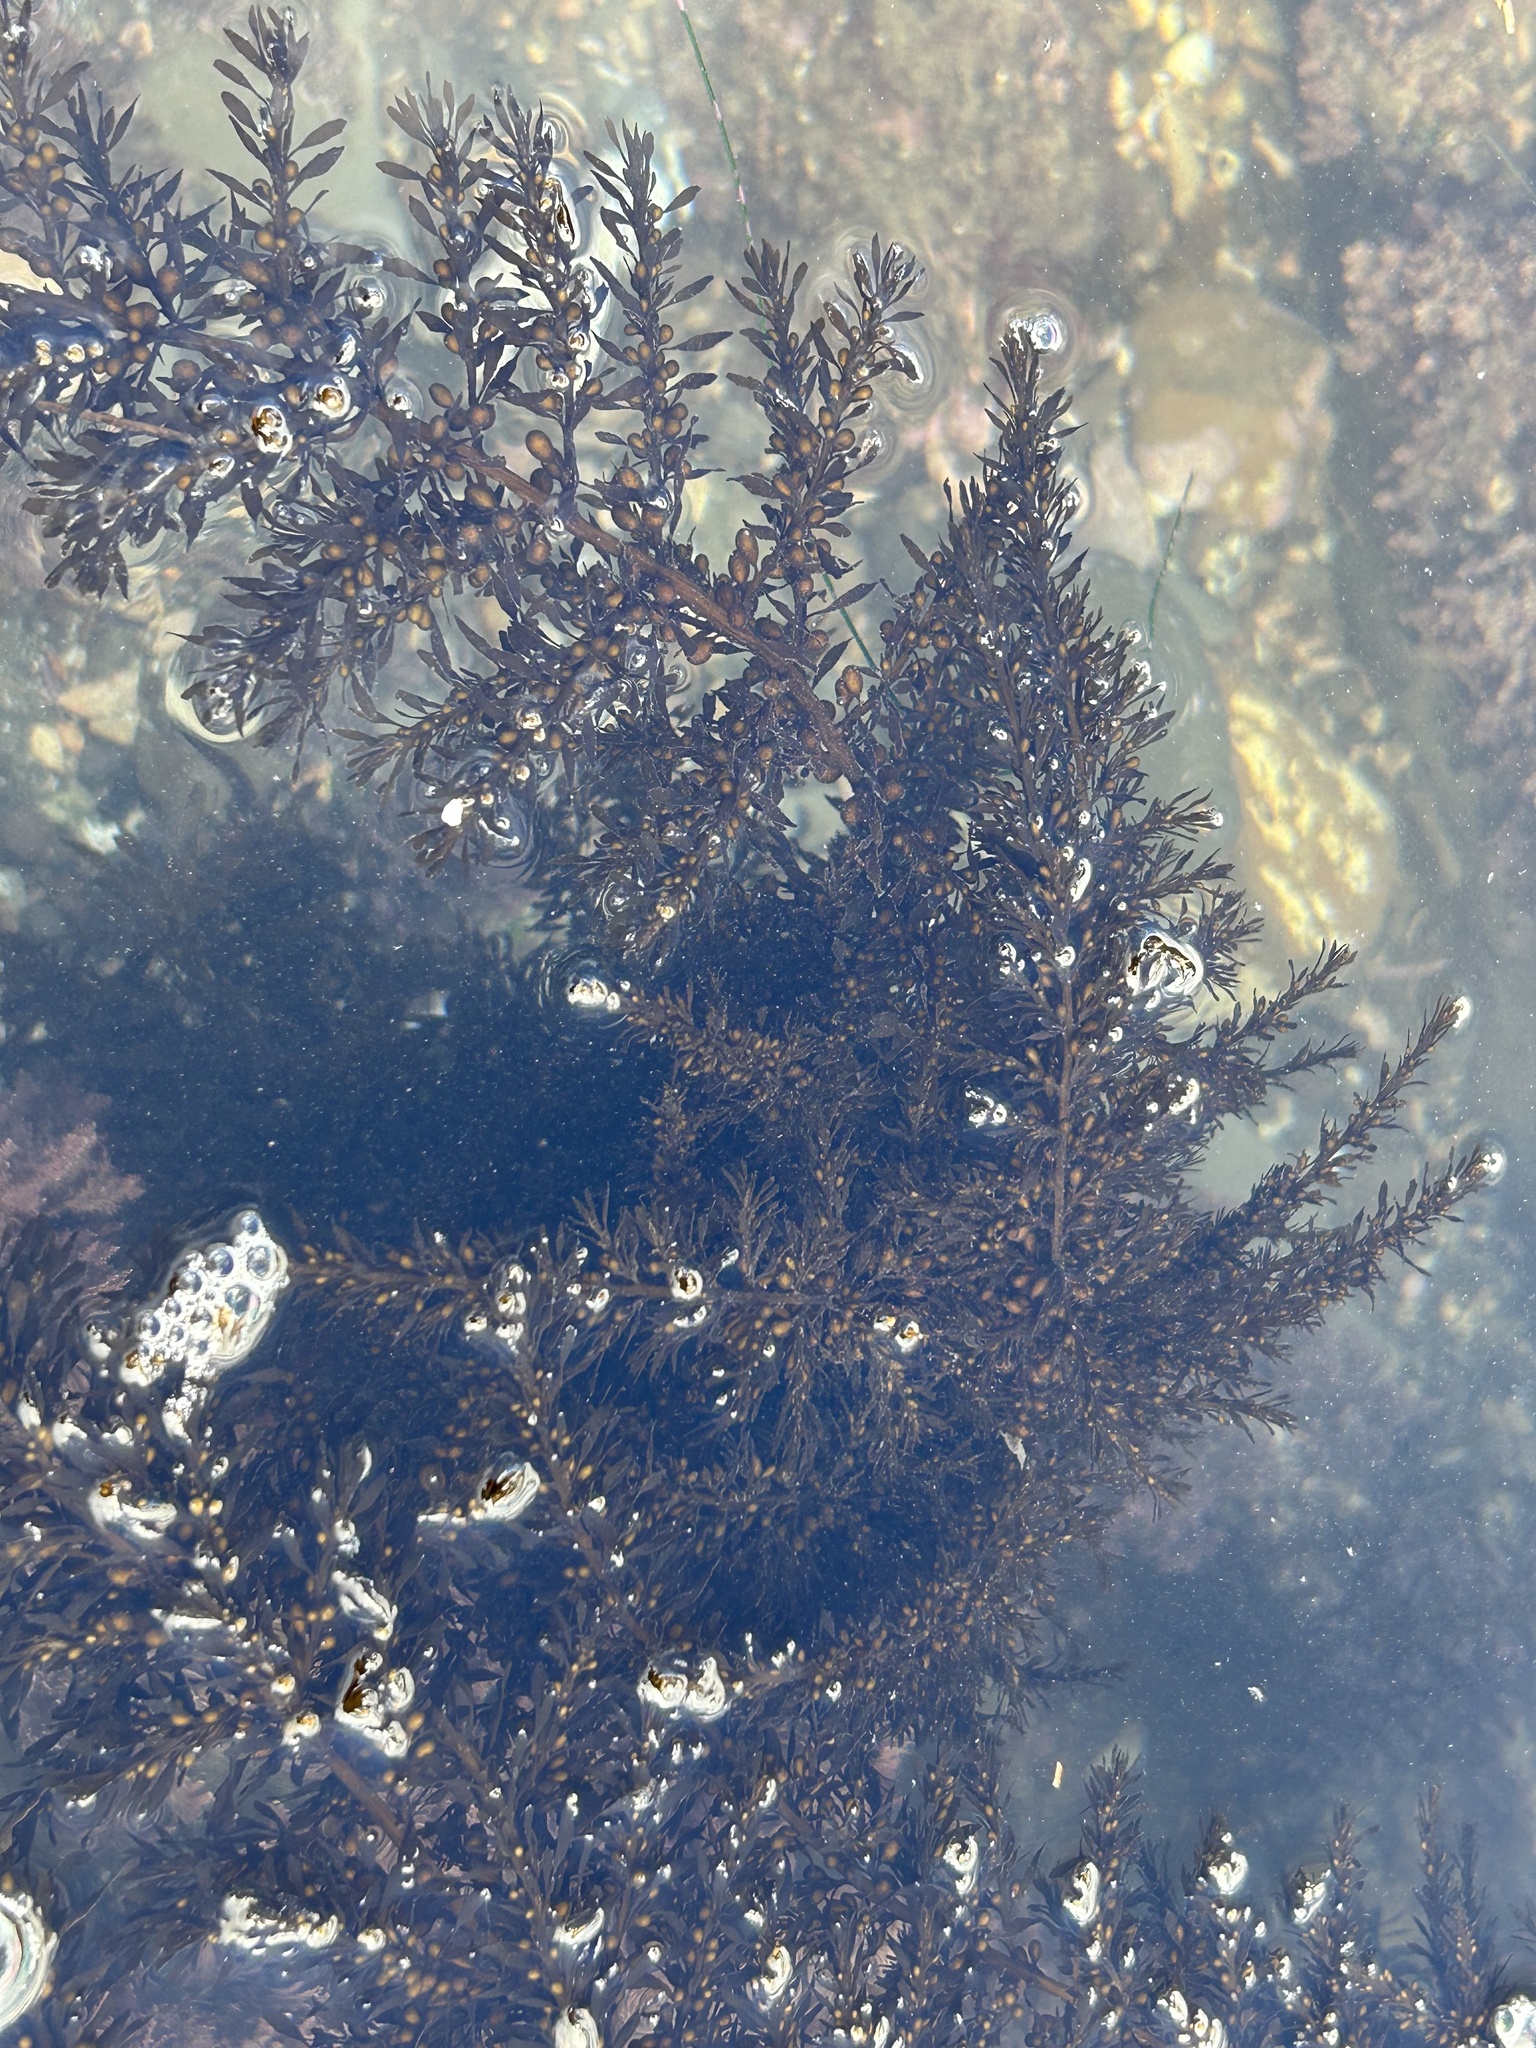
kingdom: Chromista
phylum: Ochrophyta
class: Phaeophyceae
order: Fucales
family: Sargassaceae
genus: Sargassum
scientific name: Sargassum muticum
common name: Japweed
